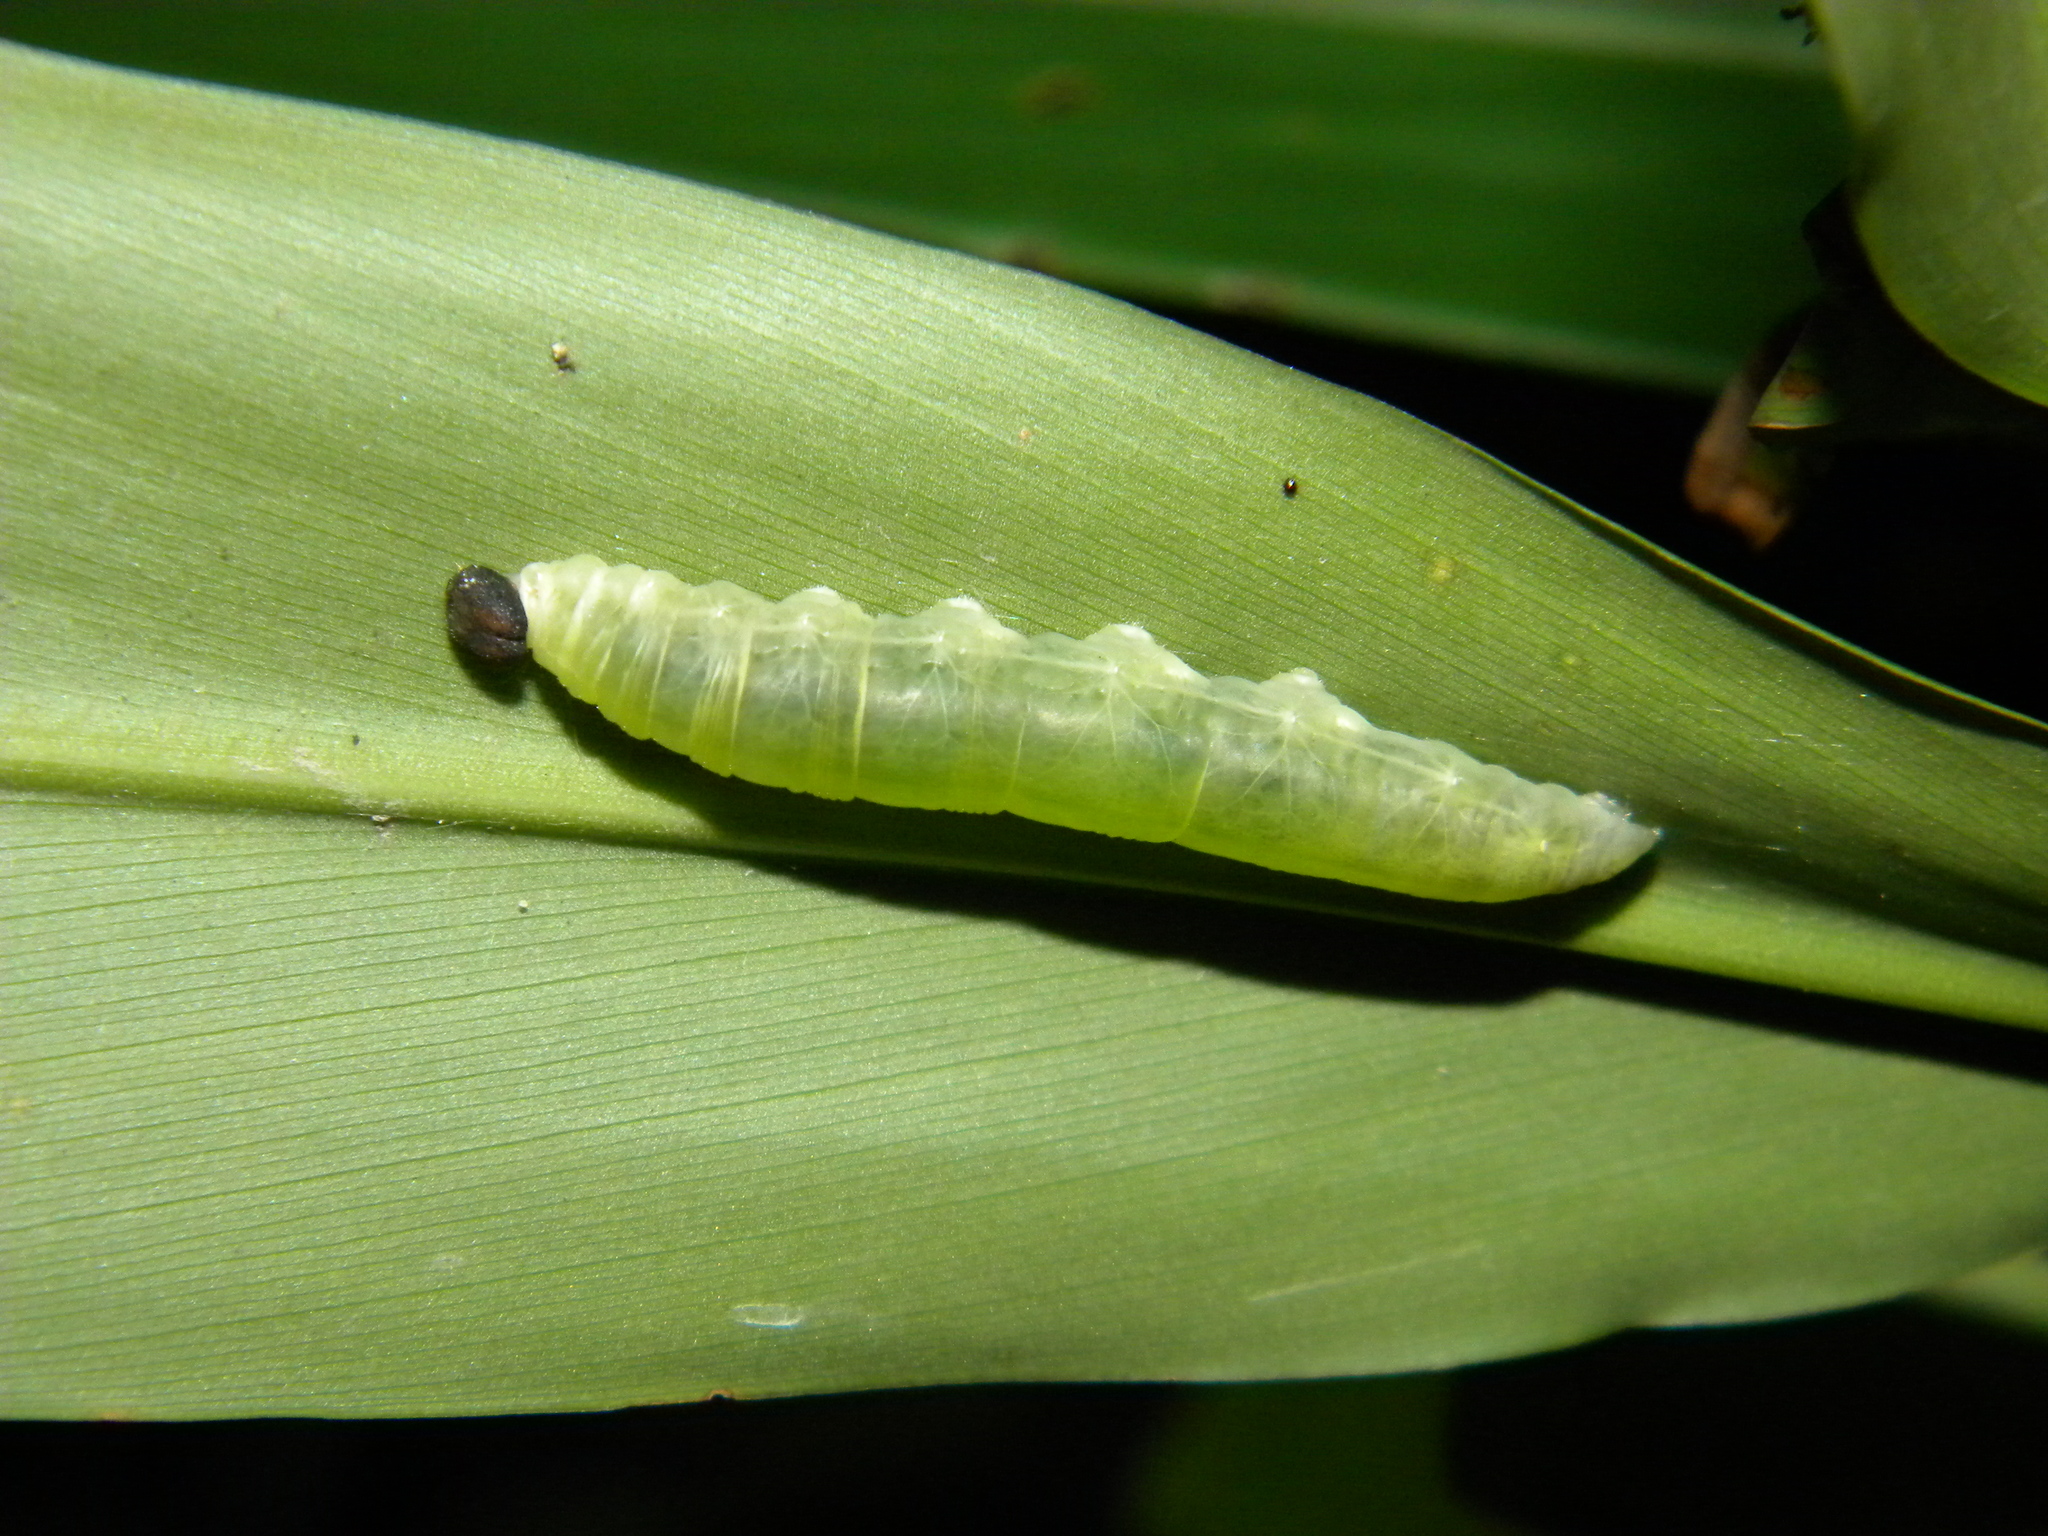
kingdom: Animalia
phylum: Arthropoda
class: Insecta
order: Lepidoptera
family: Hesperiidae
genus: Udaspes
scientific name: Udaspes folus
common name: Grass demon
